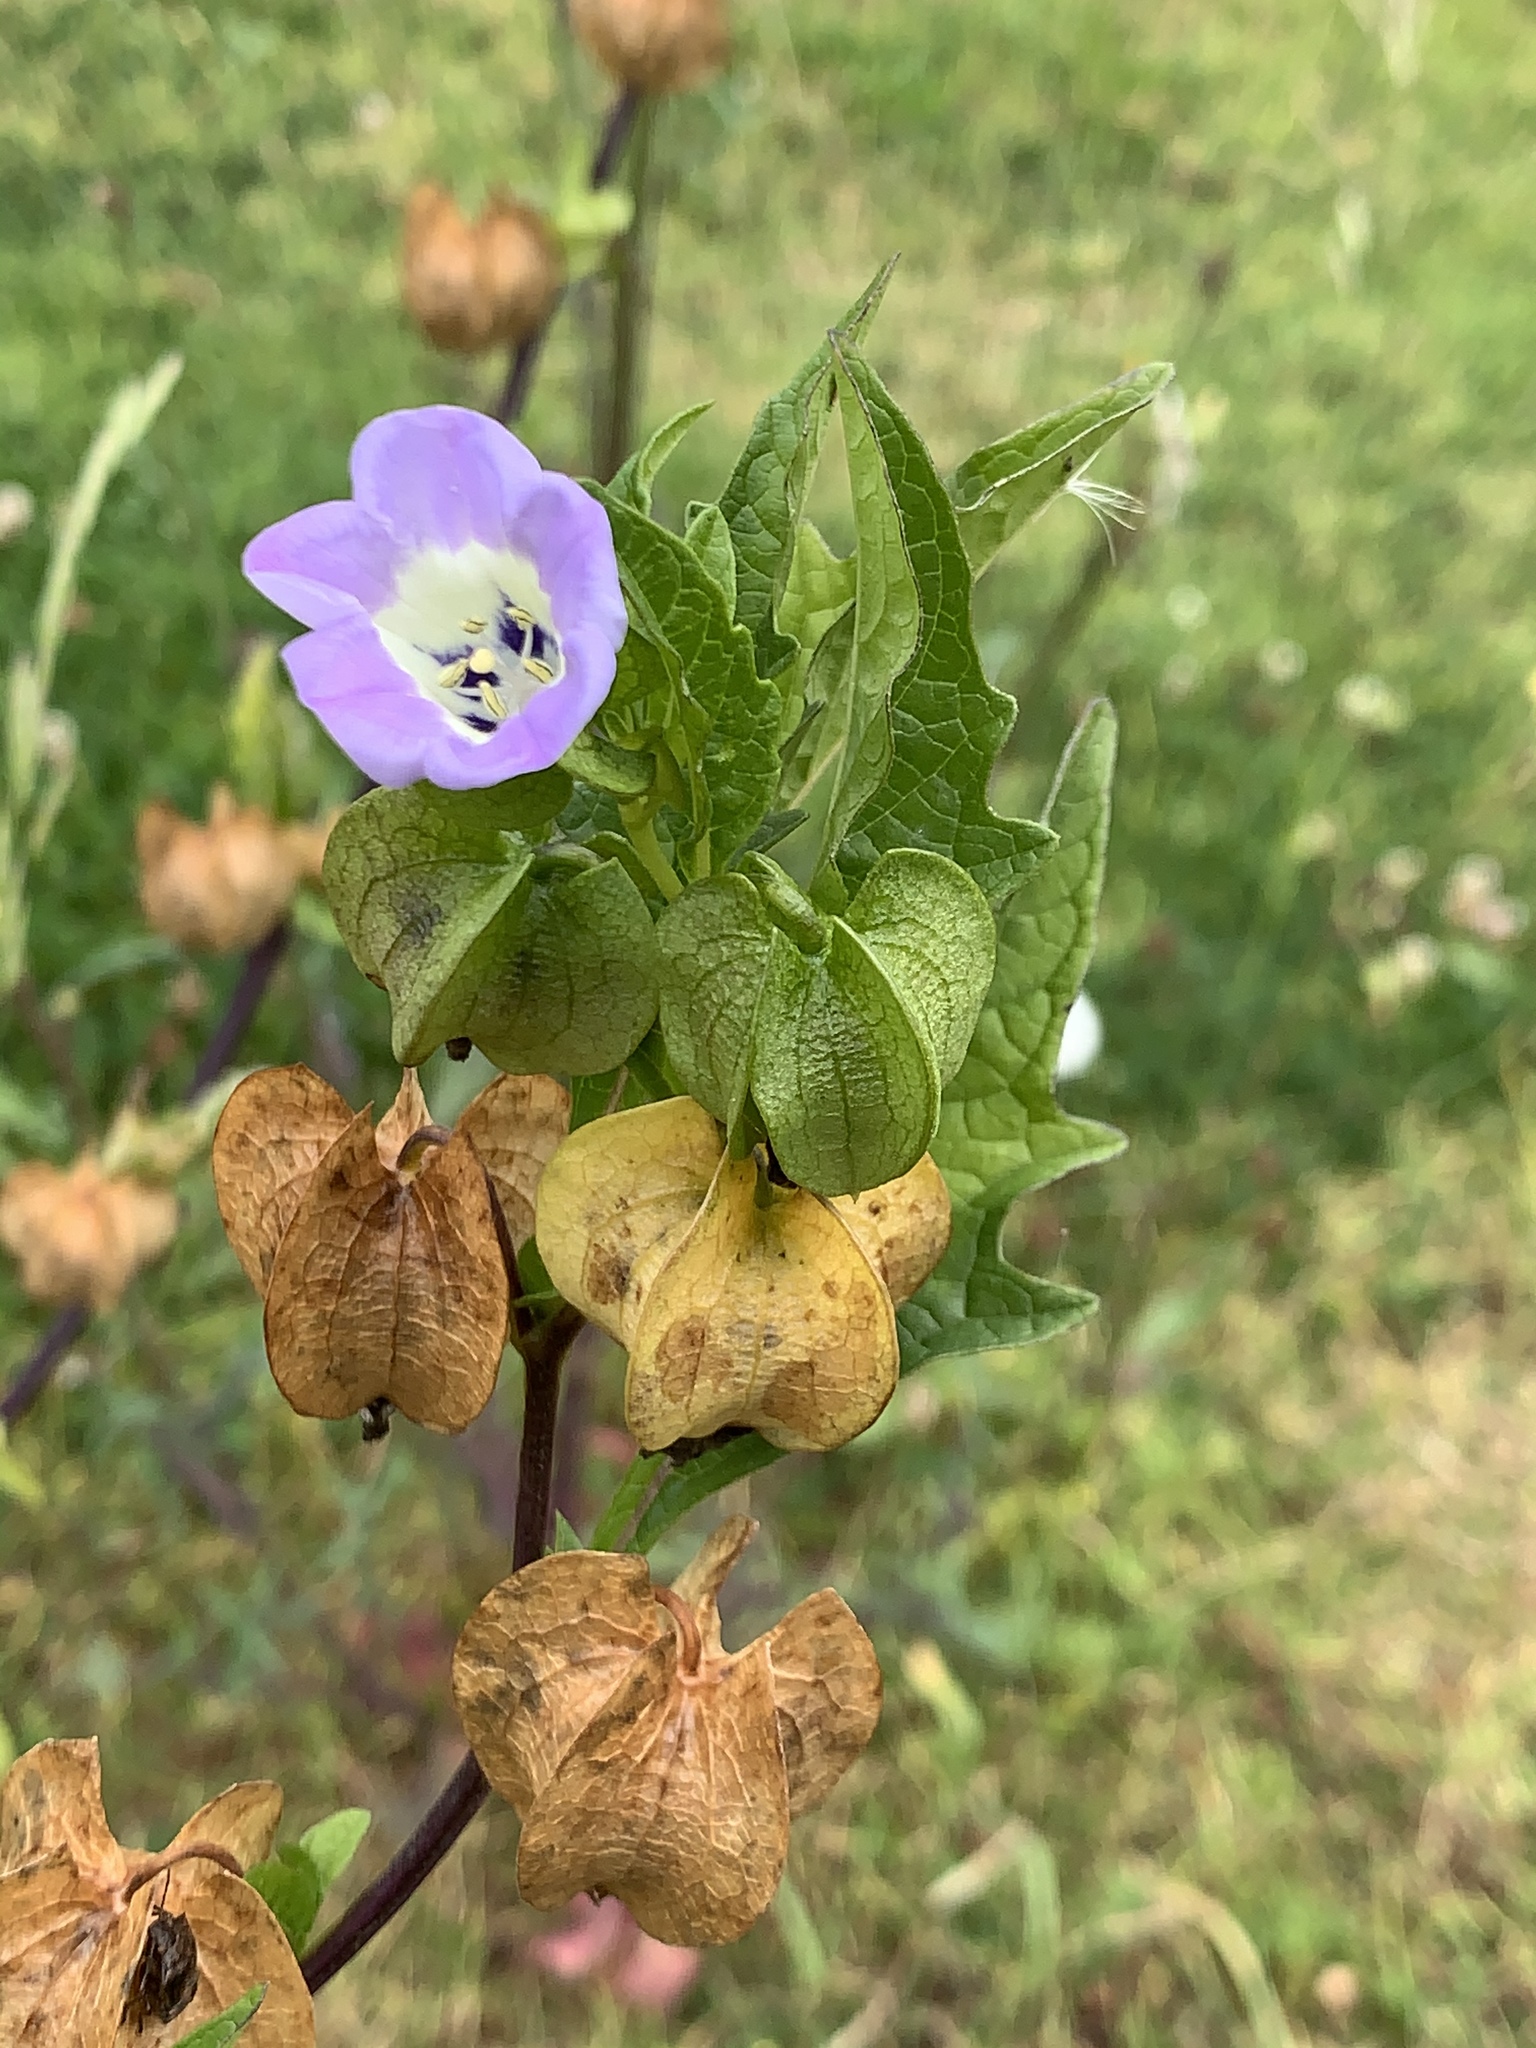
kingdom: Plantae
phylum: Tracheophyta
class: Magnoliopsida
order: Solanales
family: Solanaceae
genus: Nicandra
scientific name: Nicandra physalodes
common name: Apple-of-peru
